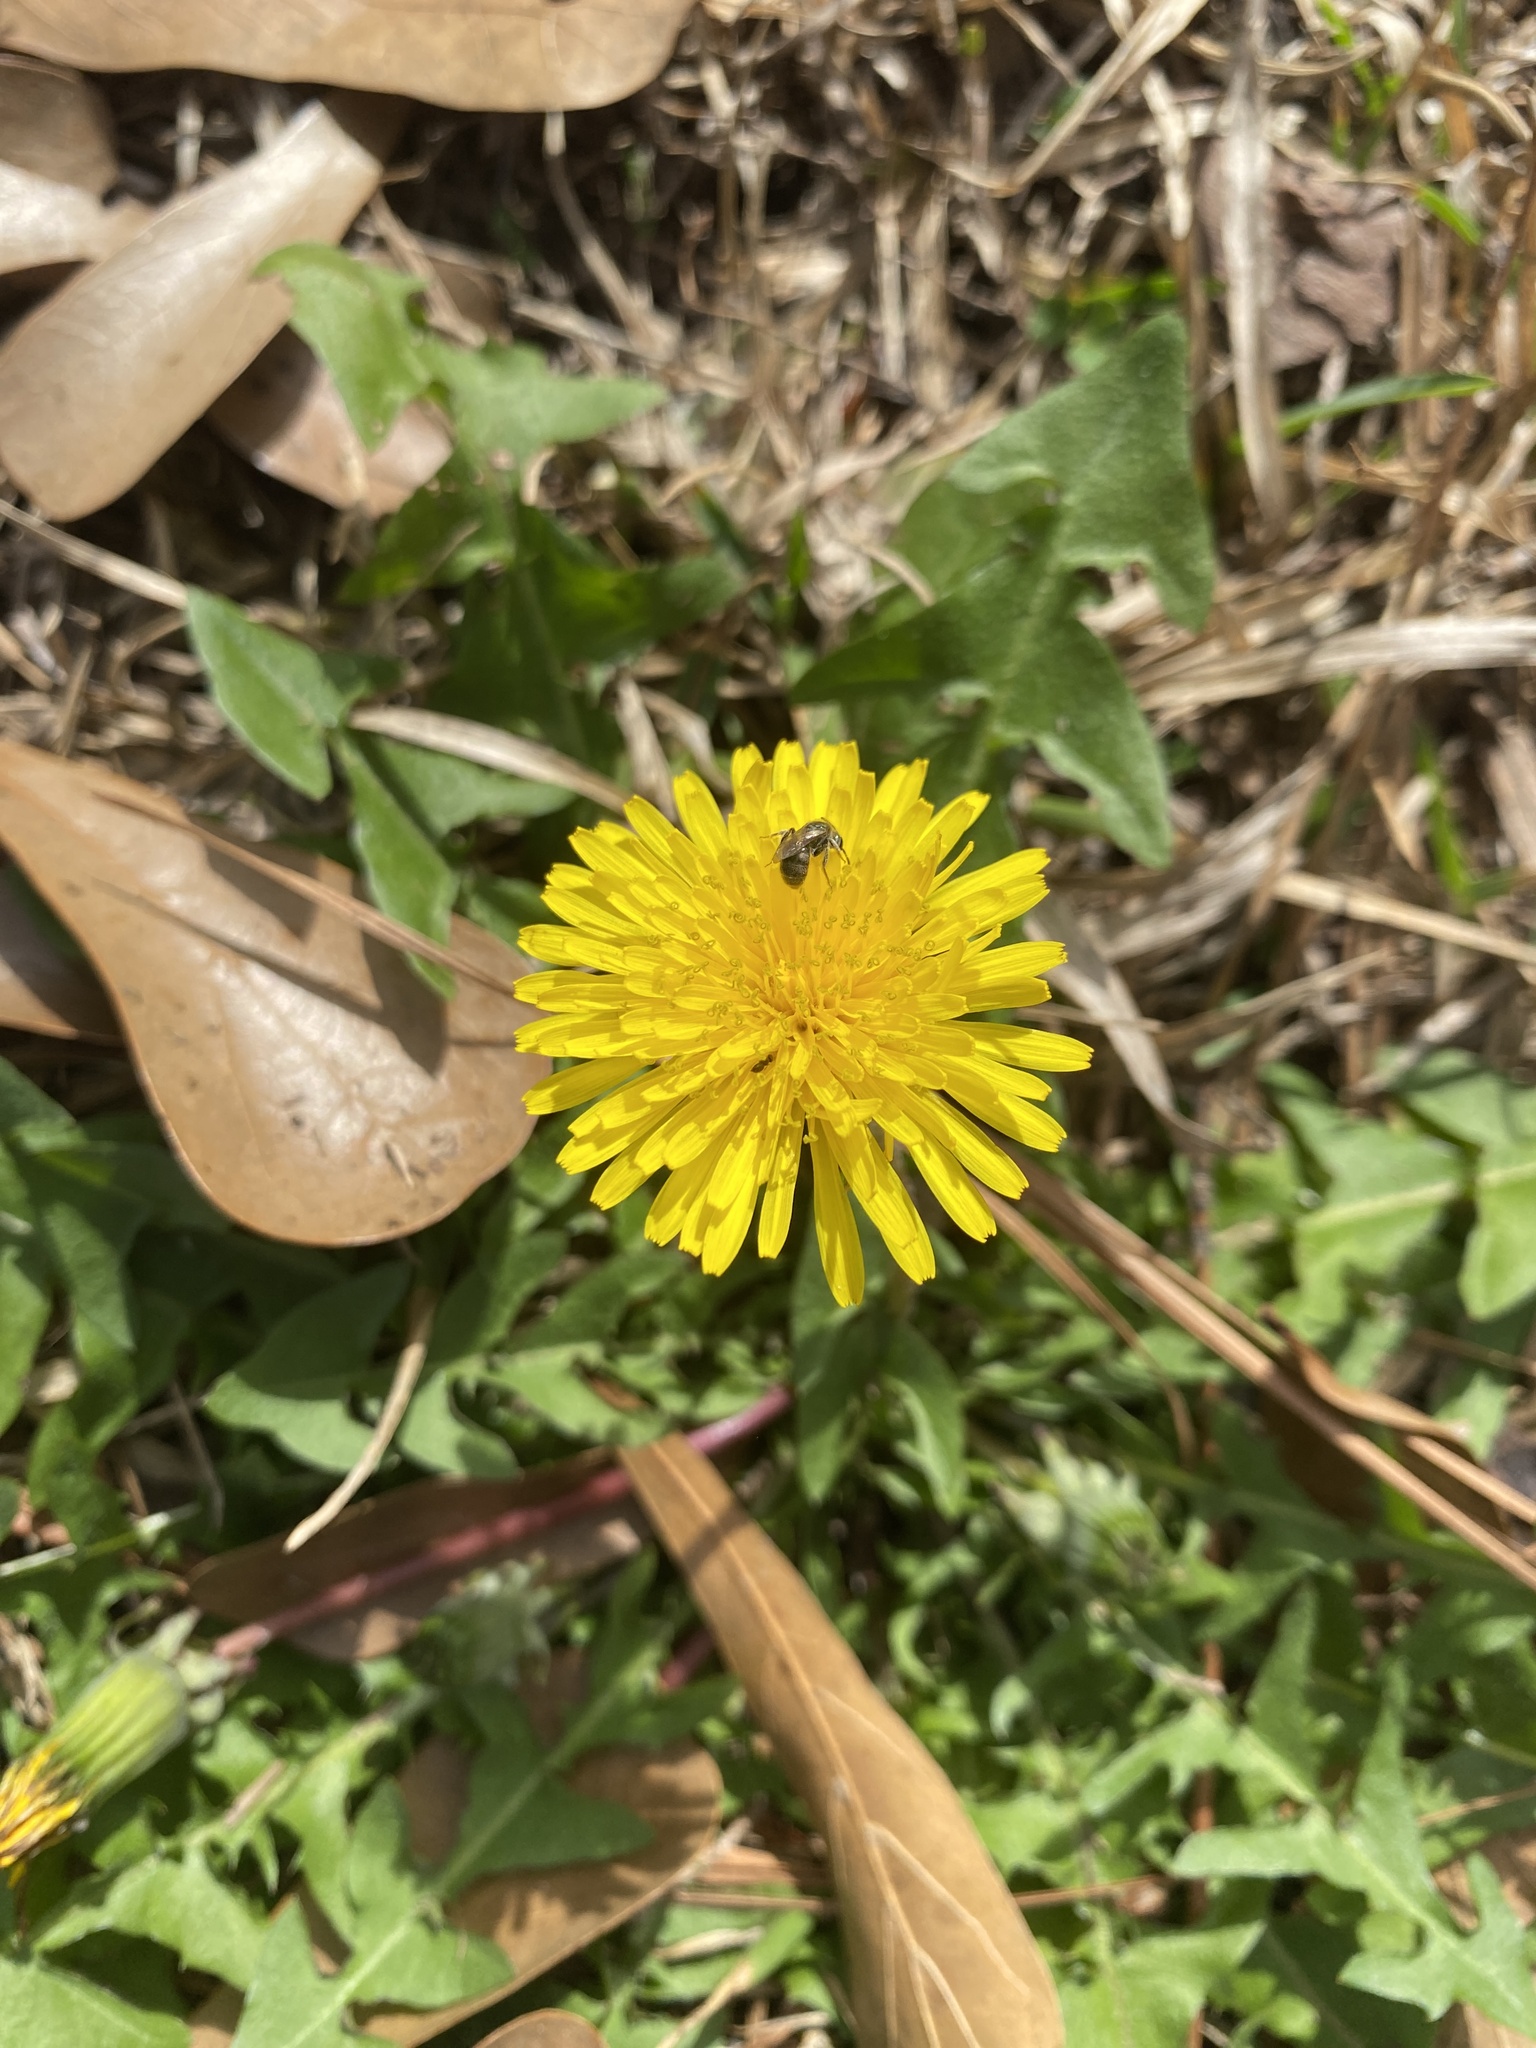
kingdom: Plantae
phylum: Tracheophyta
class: Magnoliopsida
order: Asterales
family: Asteraceae
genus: Taraxacum
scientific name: Taraxacum officinale
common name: Common dandelion
